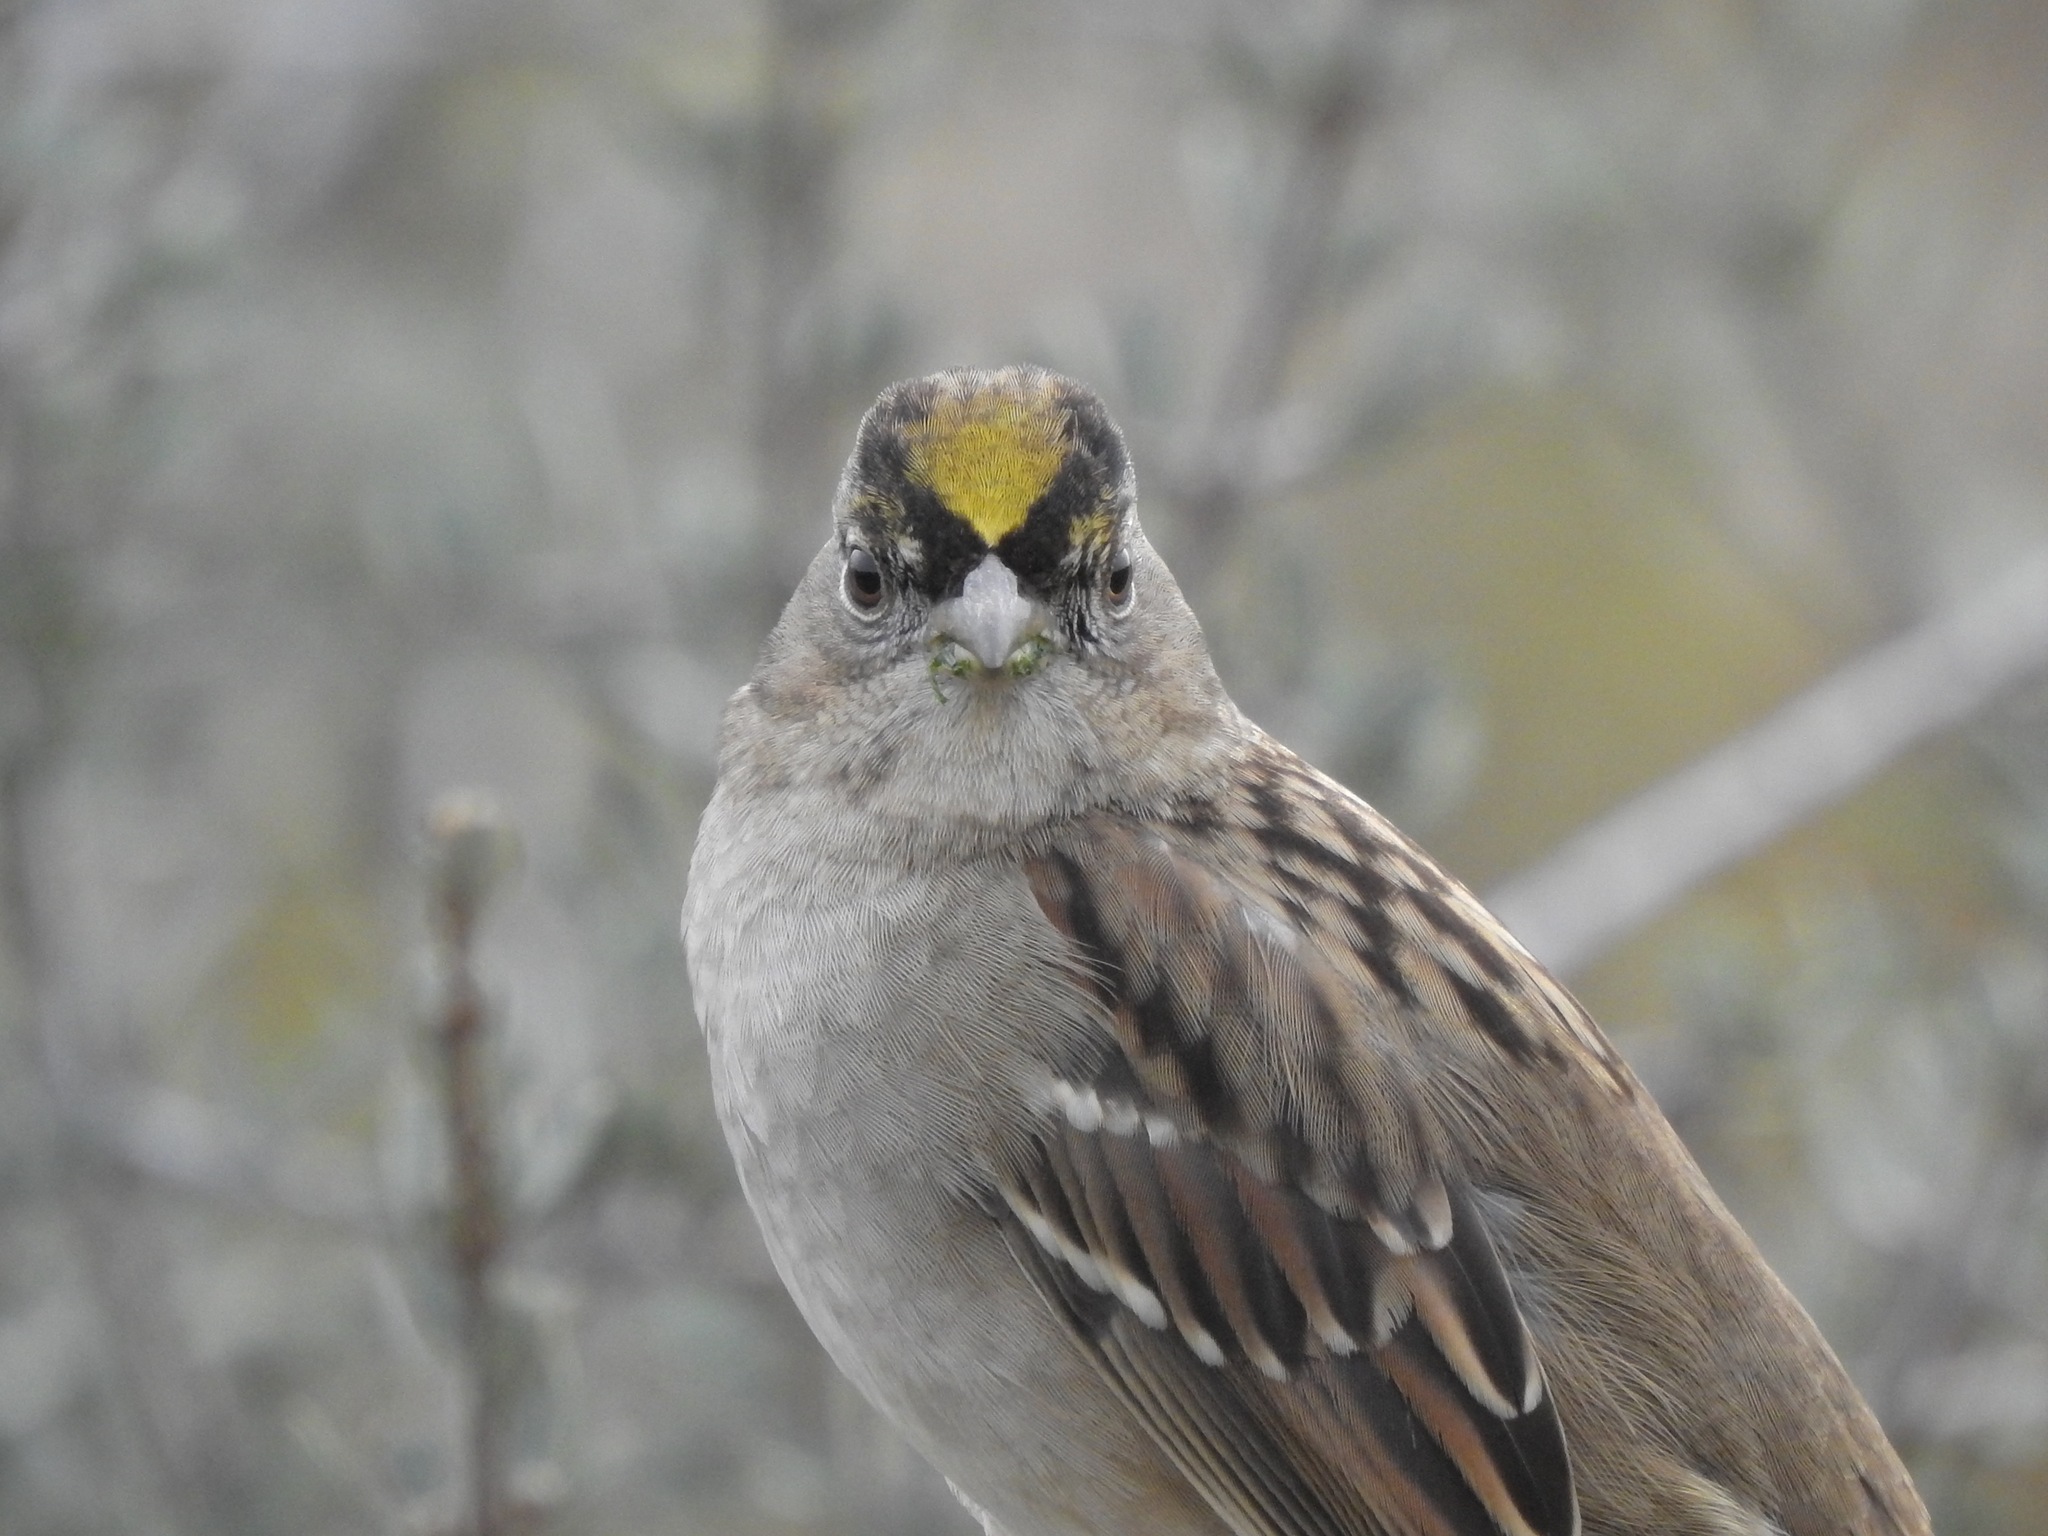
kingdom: Animalia
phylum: Chordata
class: Aves
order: Passeriformes
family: Passerellidae
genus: Zonotrichia
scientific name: Zonotrichia atricapilla
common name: Golden-crowned sparrow
